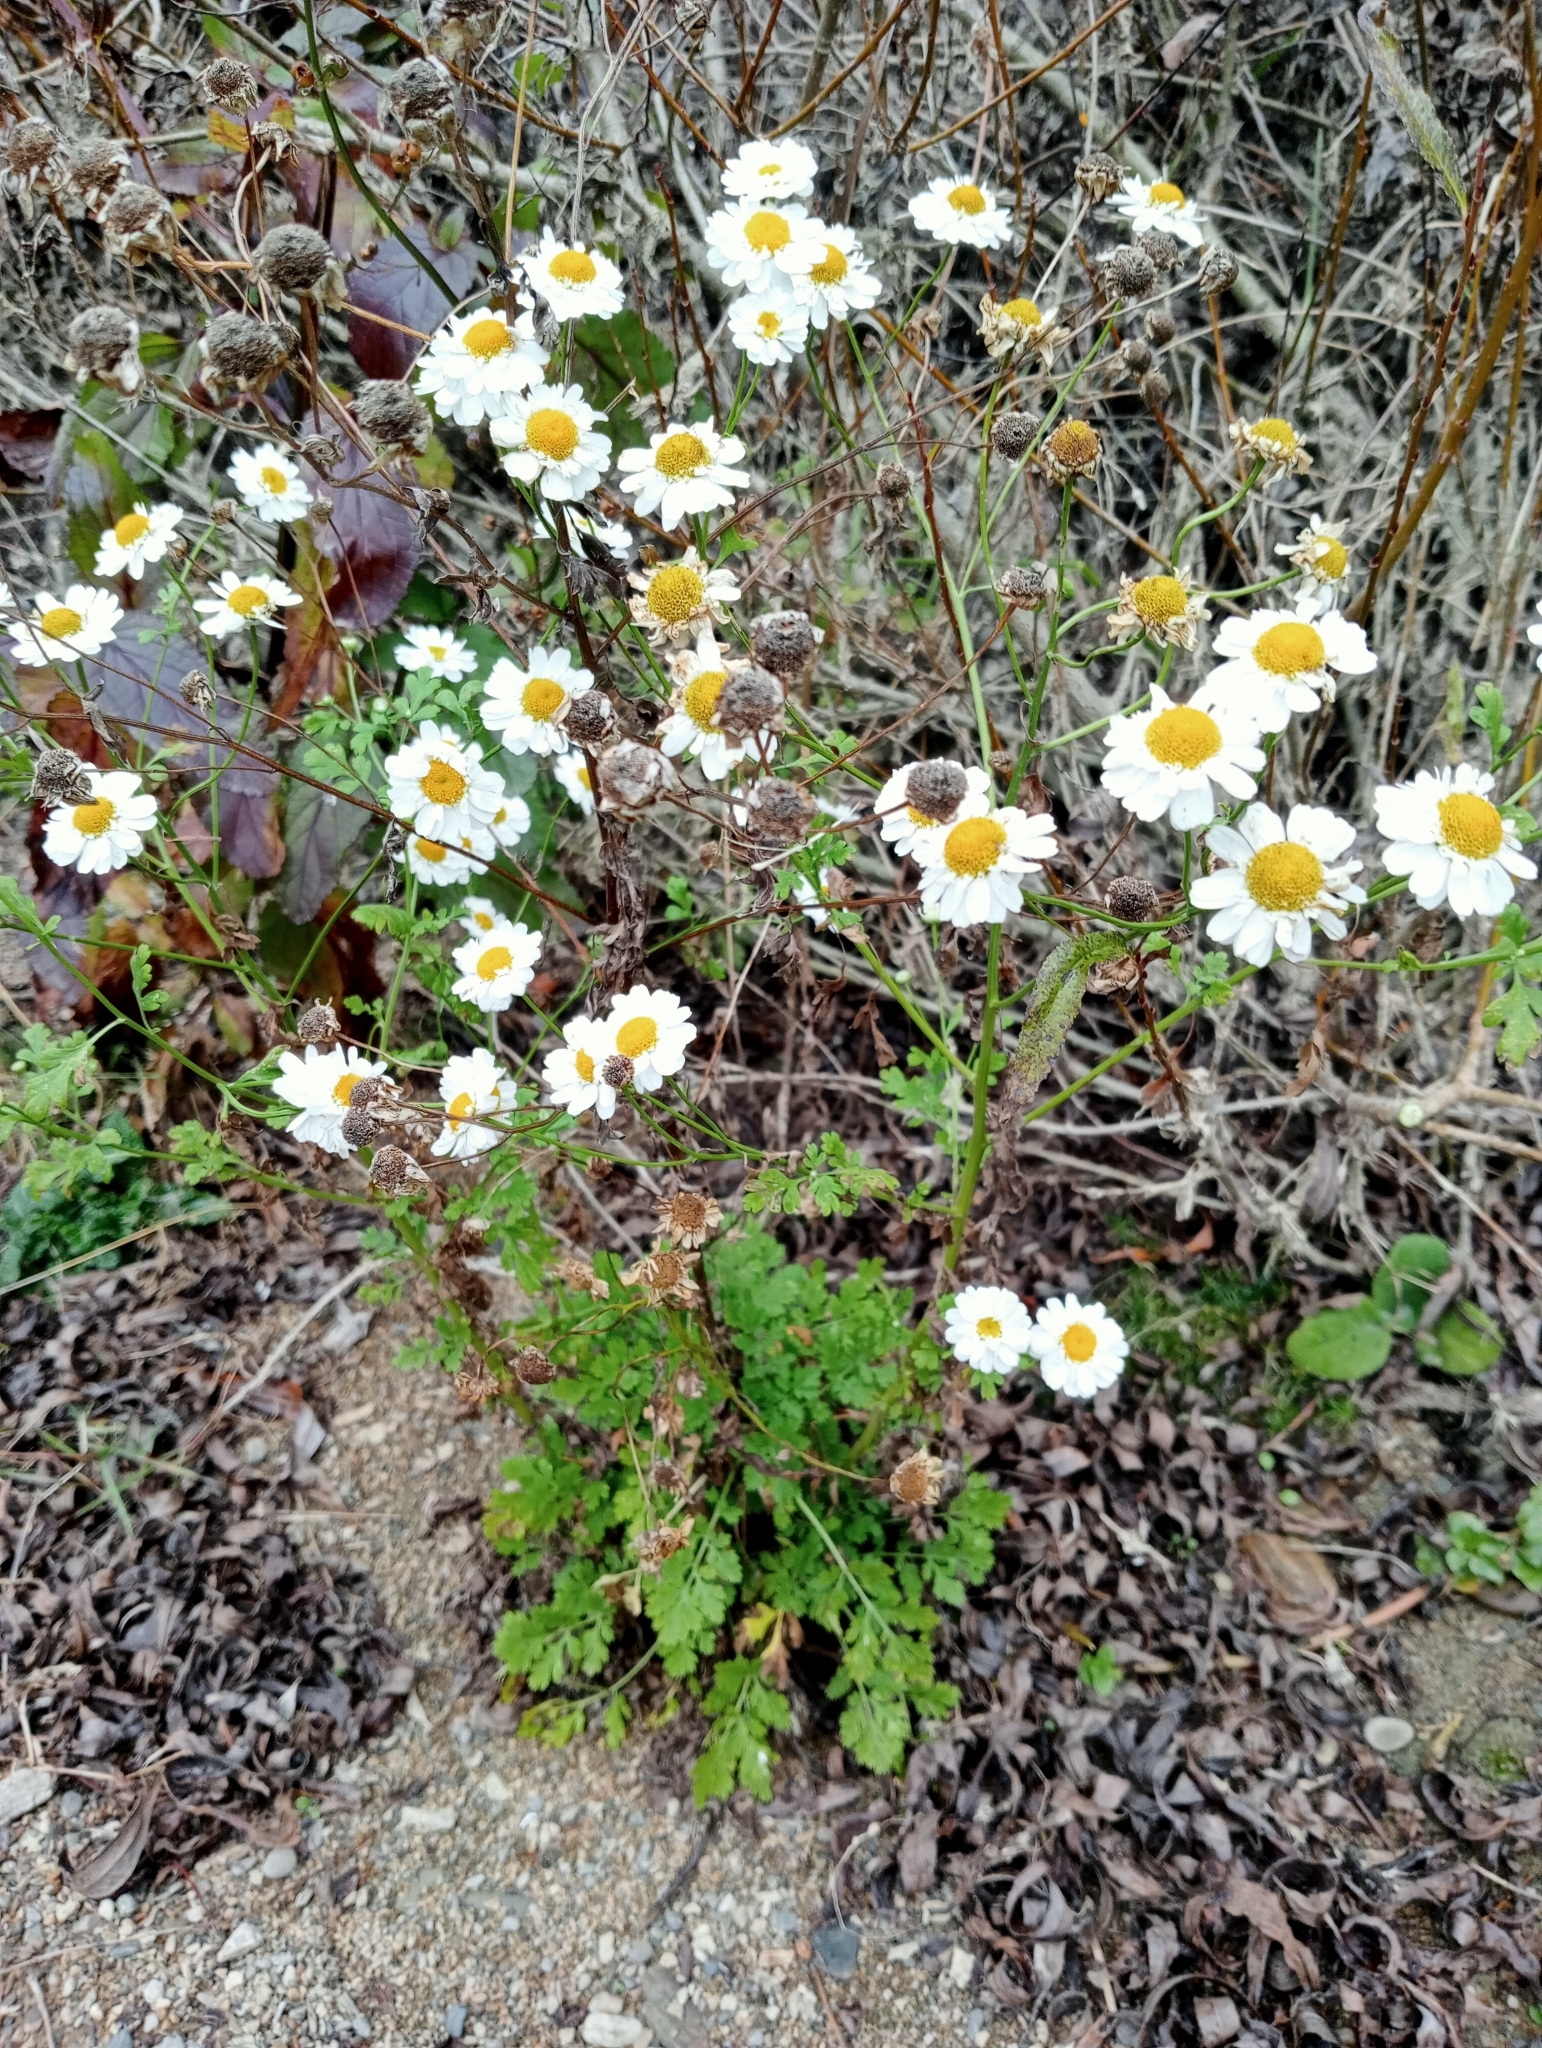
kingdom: Plantae
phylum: Tracheophyta
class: Magnoliopsida
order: Asterales
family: Asteraceae
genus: Tanacetum
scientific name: Tanacetum parthenium
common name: Feverfew
